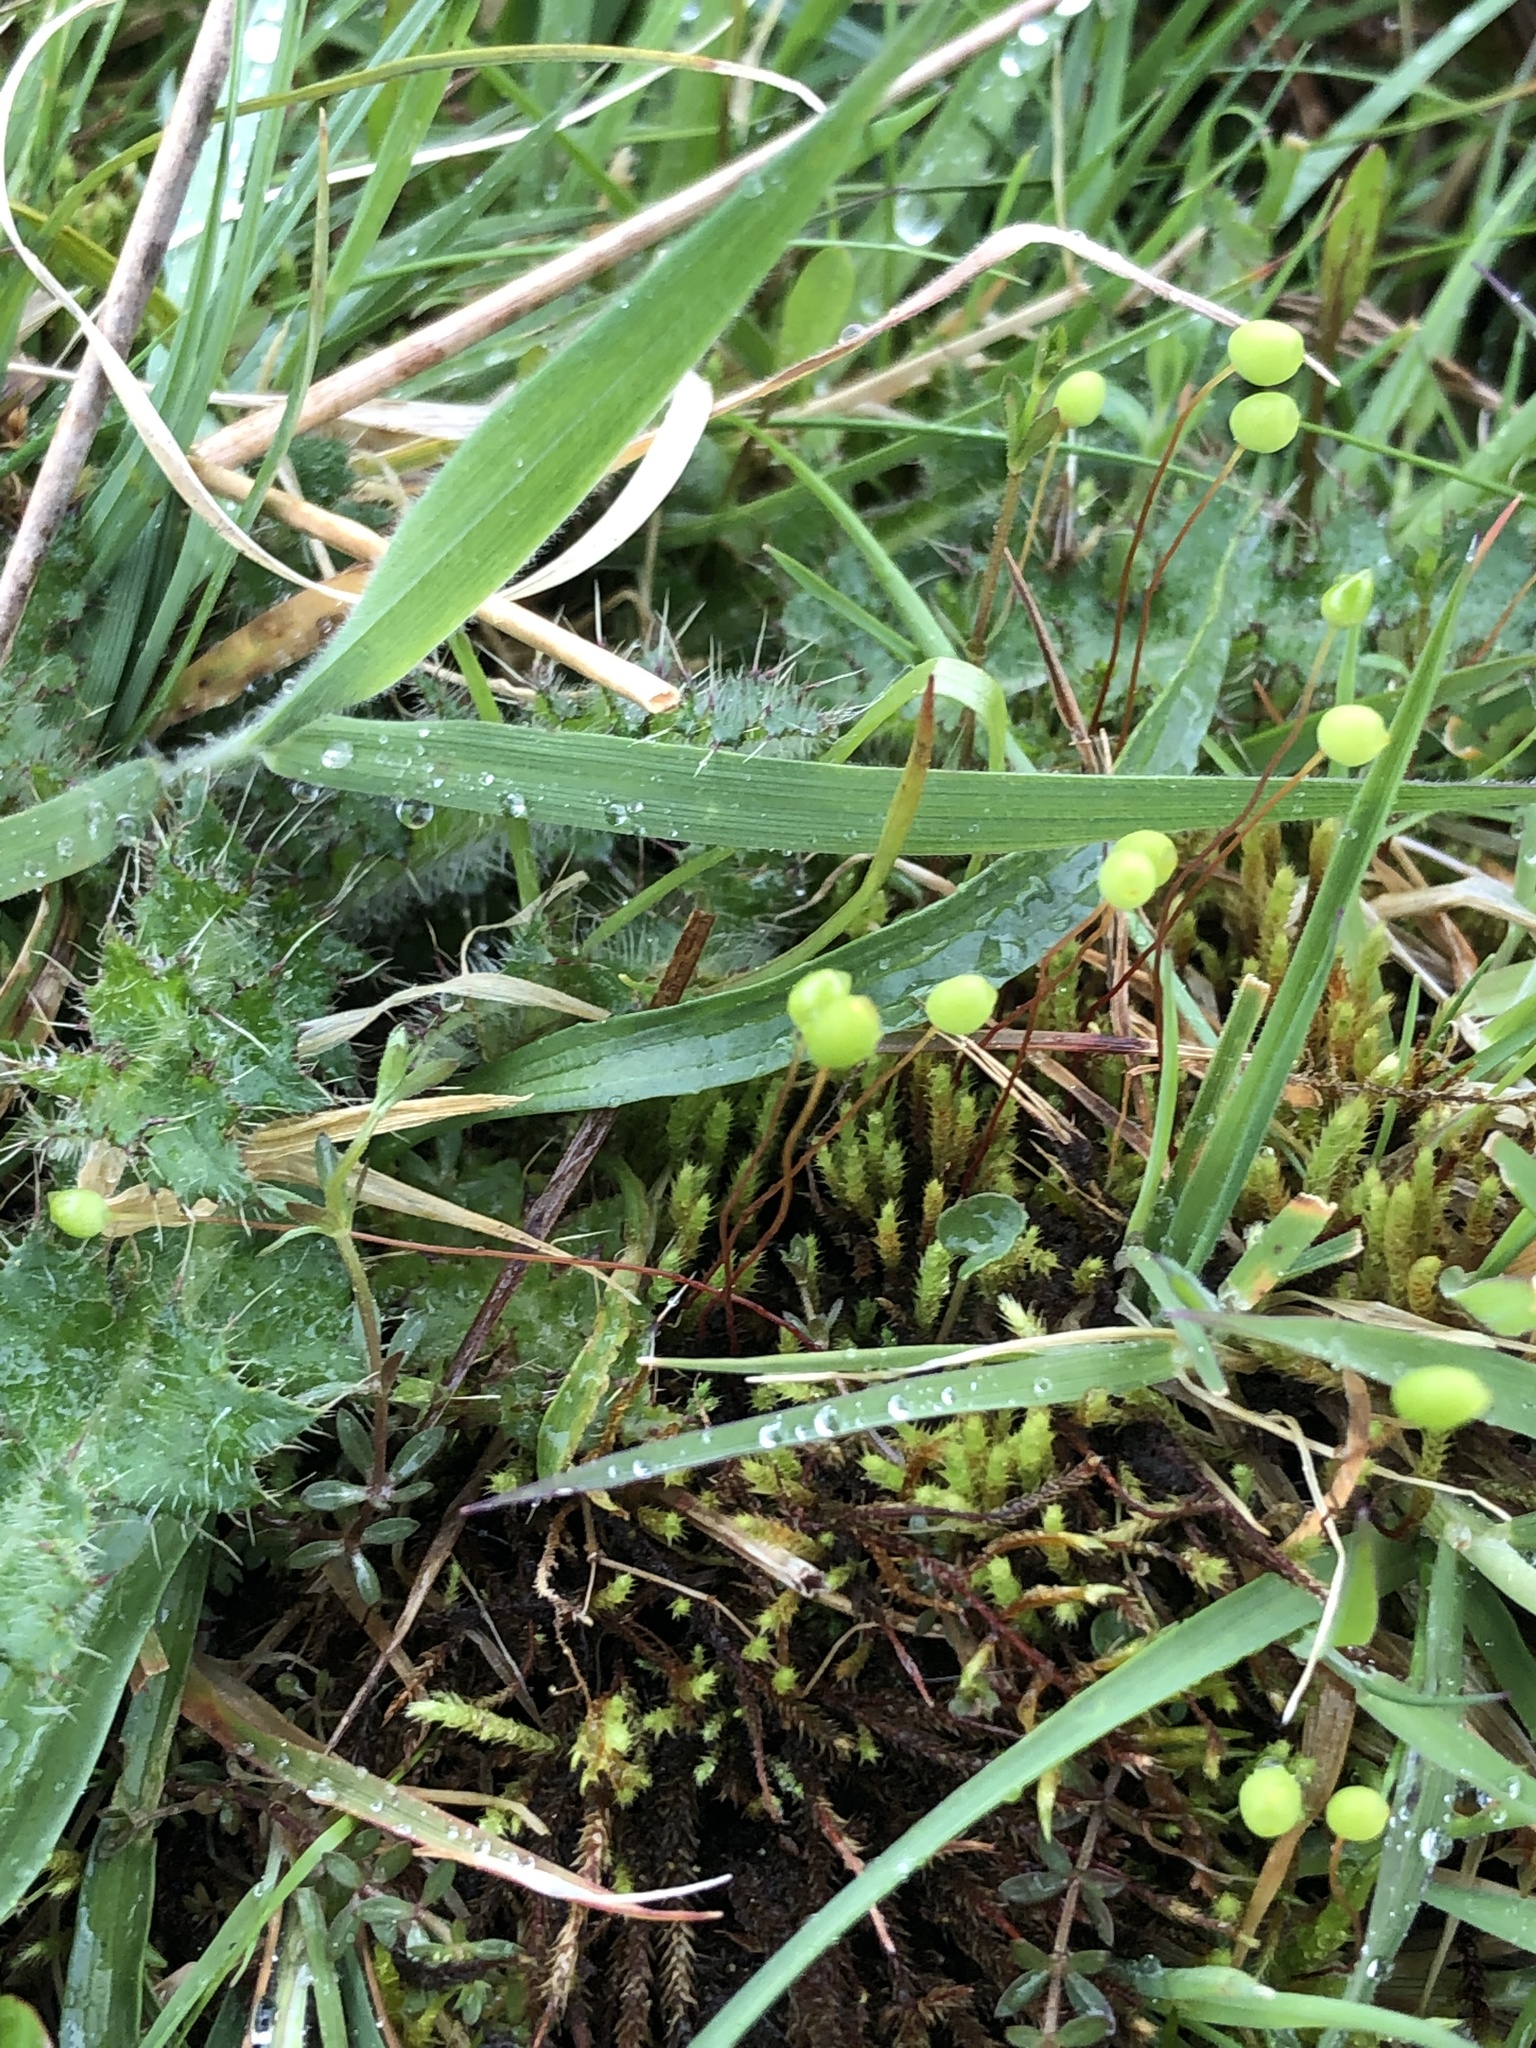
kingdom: Plantae
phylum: Bryophyta
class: Bryopsida
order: Bartramiales
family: Bartramiaceae
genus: Philonotis
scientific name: Philonotis fontana
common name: Fountain apple-moss
